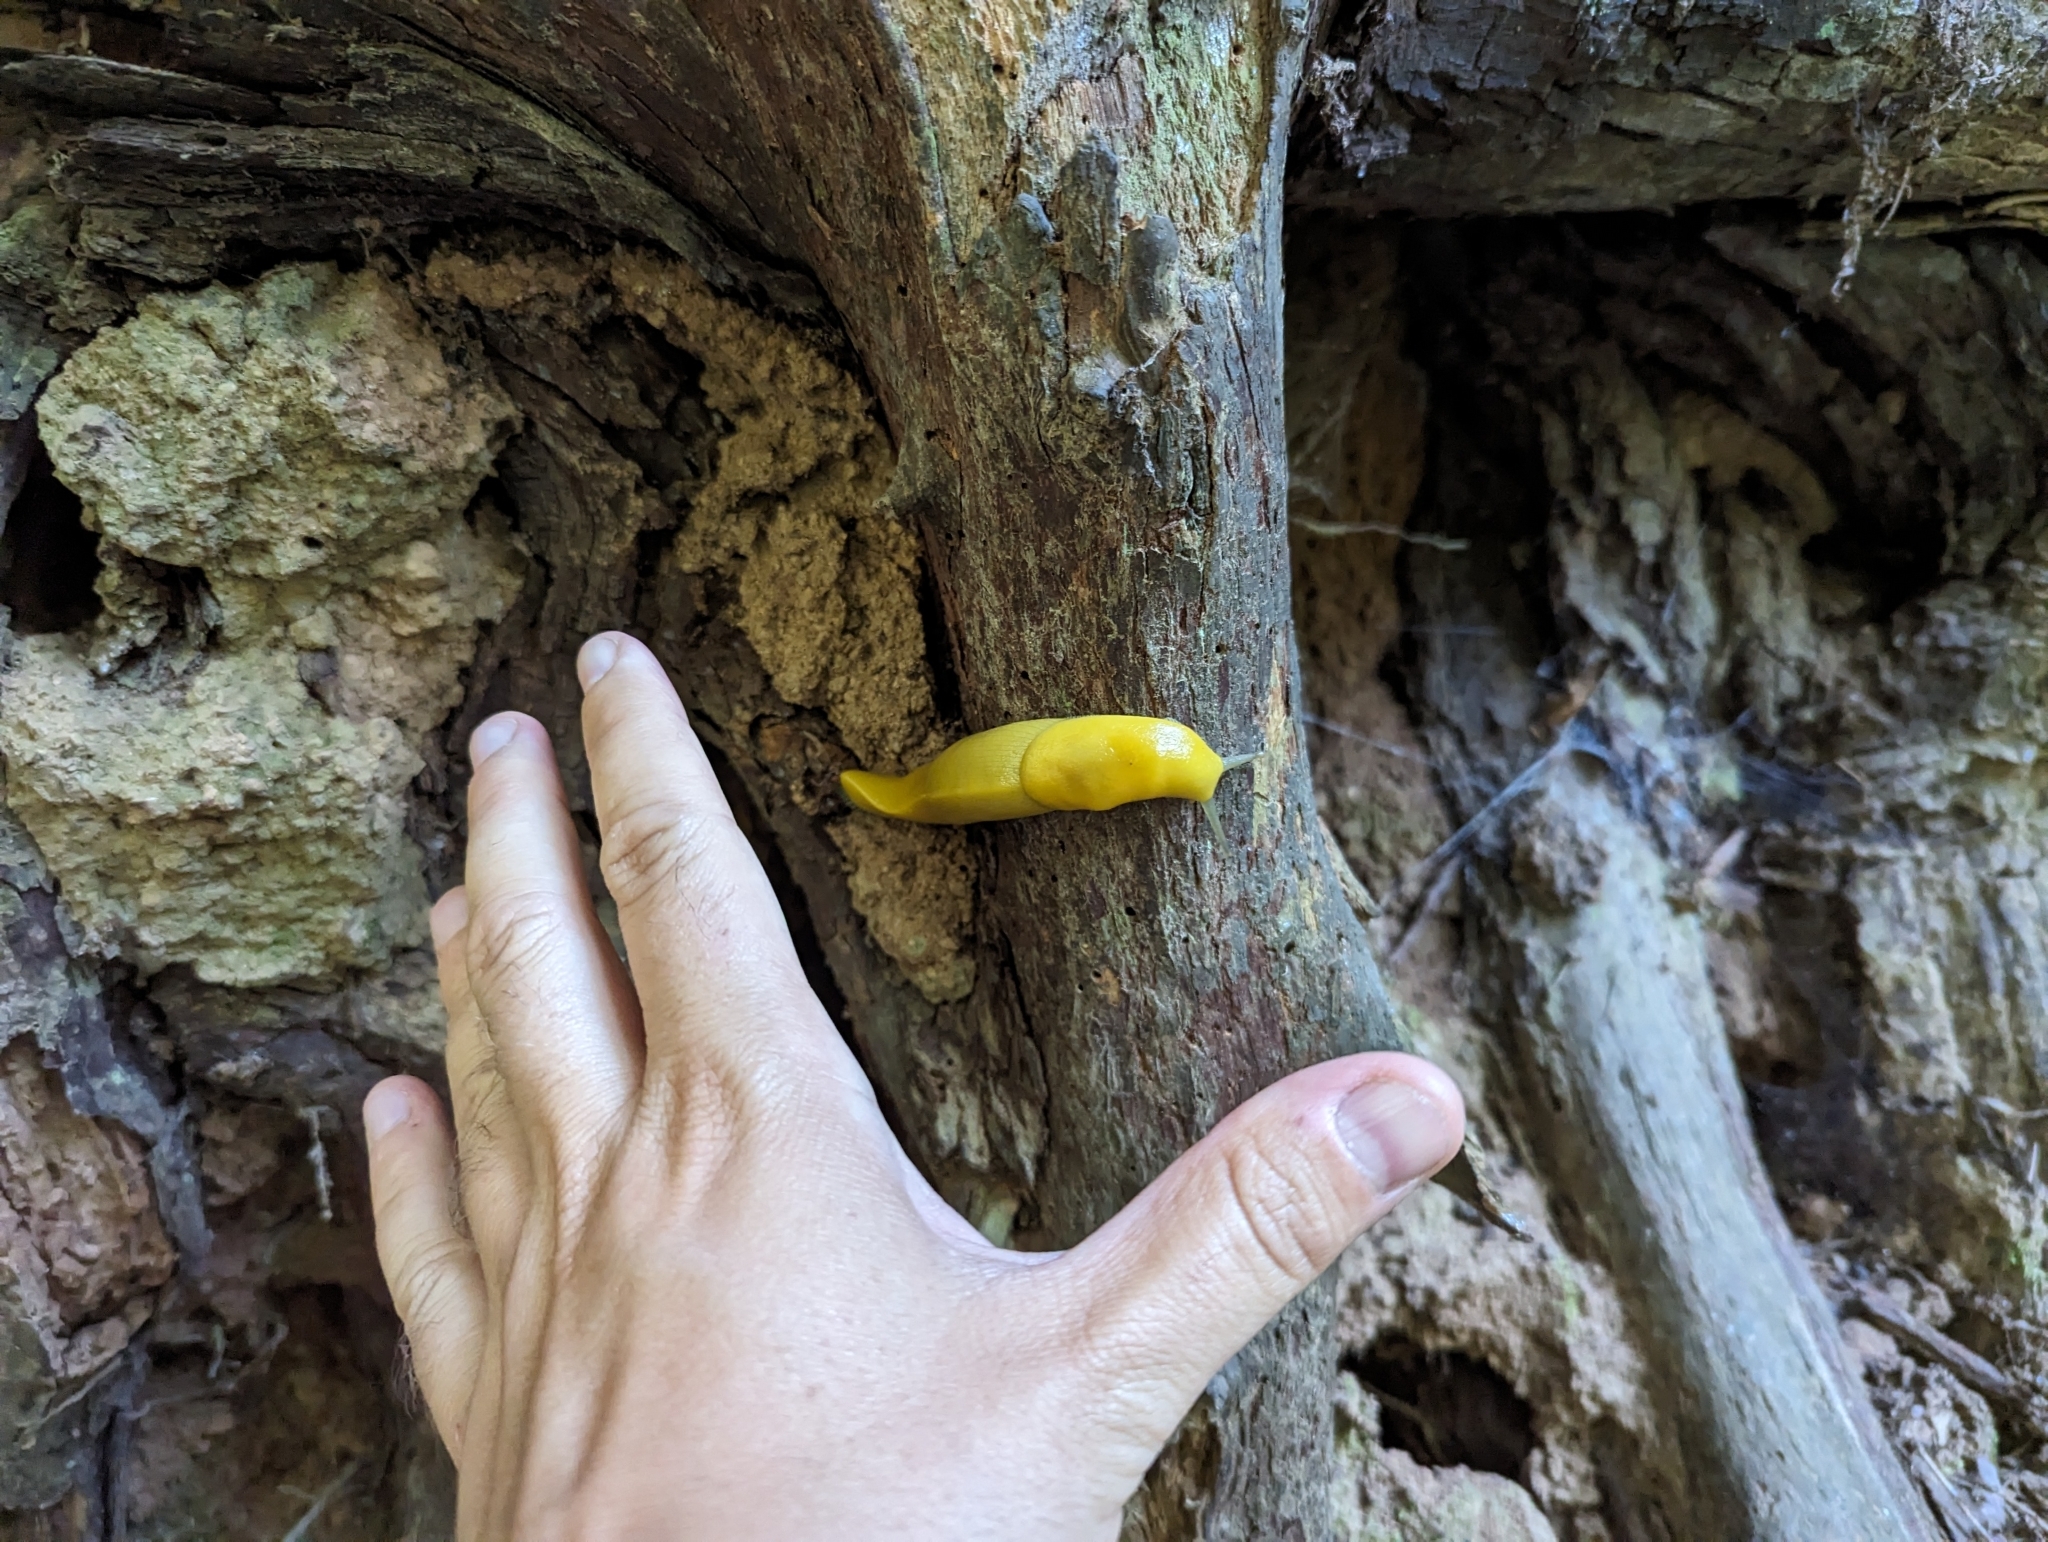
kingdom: Animalia
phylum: Mollusca
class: Gastropoda
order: Stylommatophora
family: Ariolimacidae
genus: Ariolimax
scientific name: Ariolimax dolichophallus
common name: Slender banana slug
